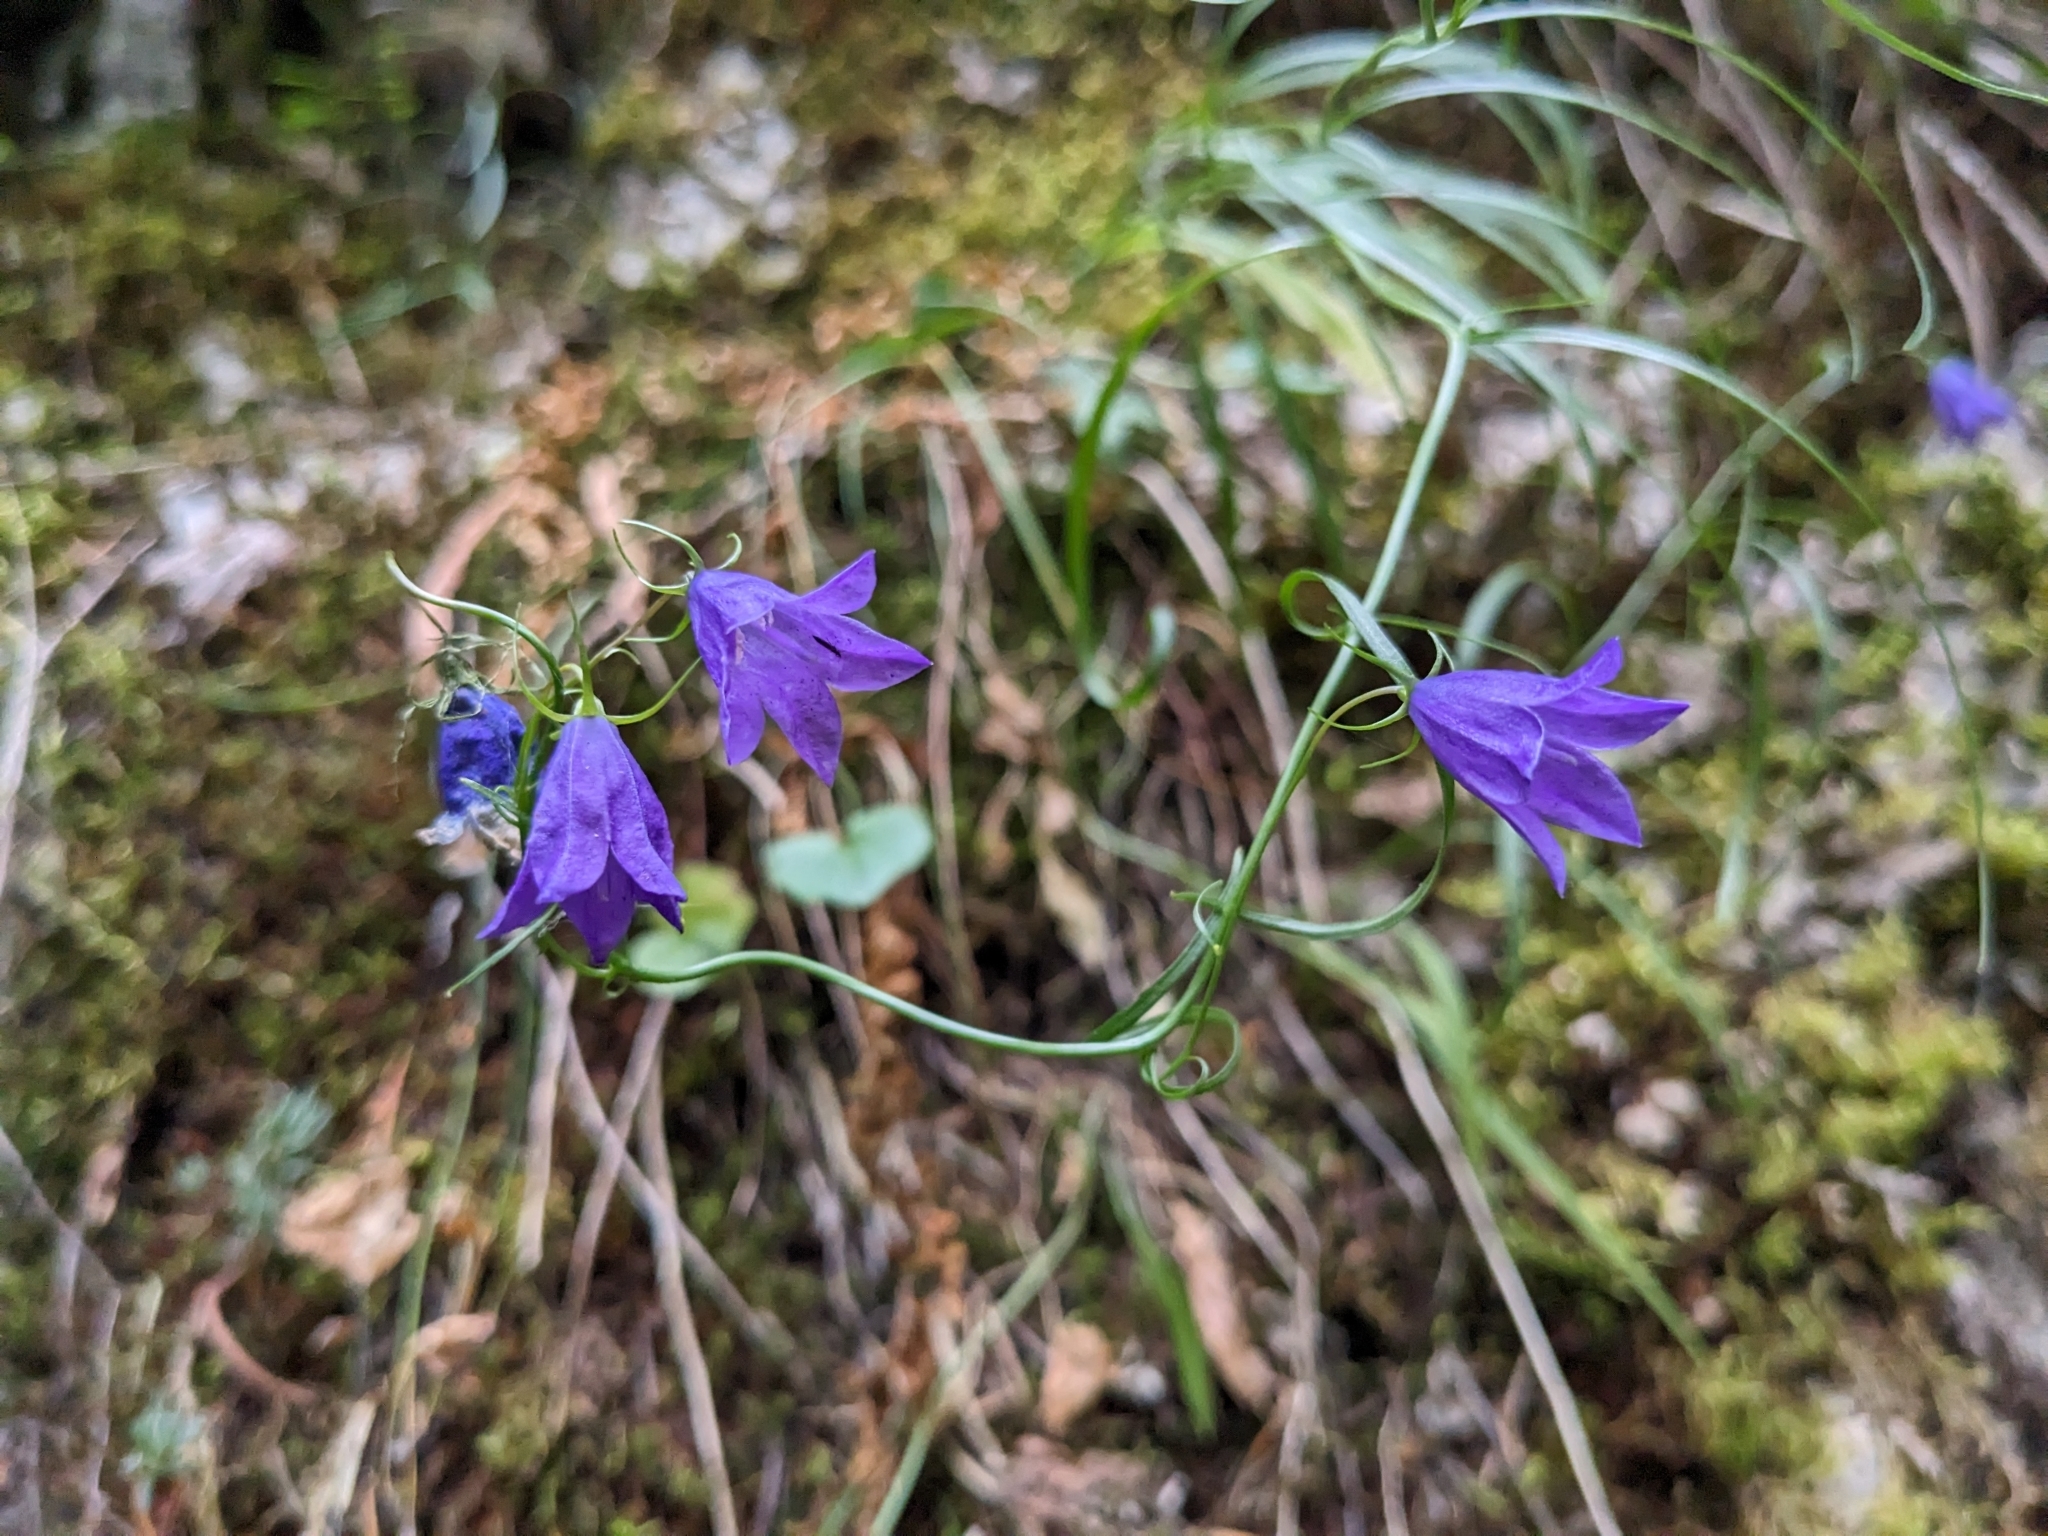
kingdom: Plantae
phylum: Tracheophyta
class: Magnoliopsida
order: Asterales
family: Campanulaceae
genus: Campanula
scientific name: Campanula
